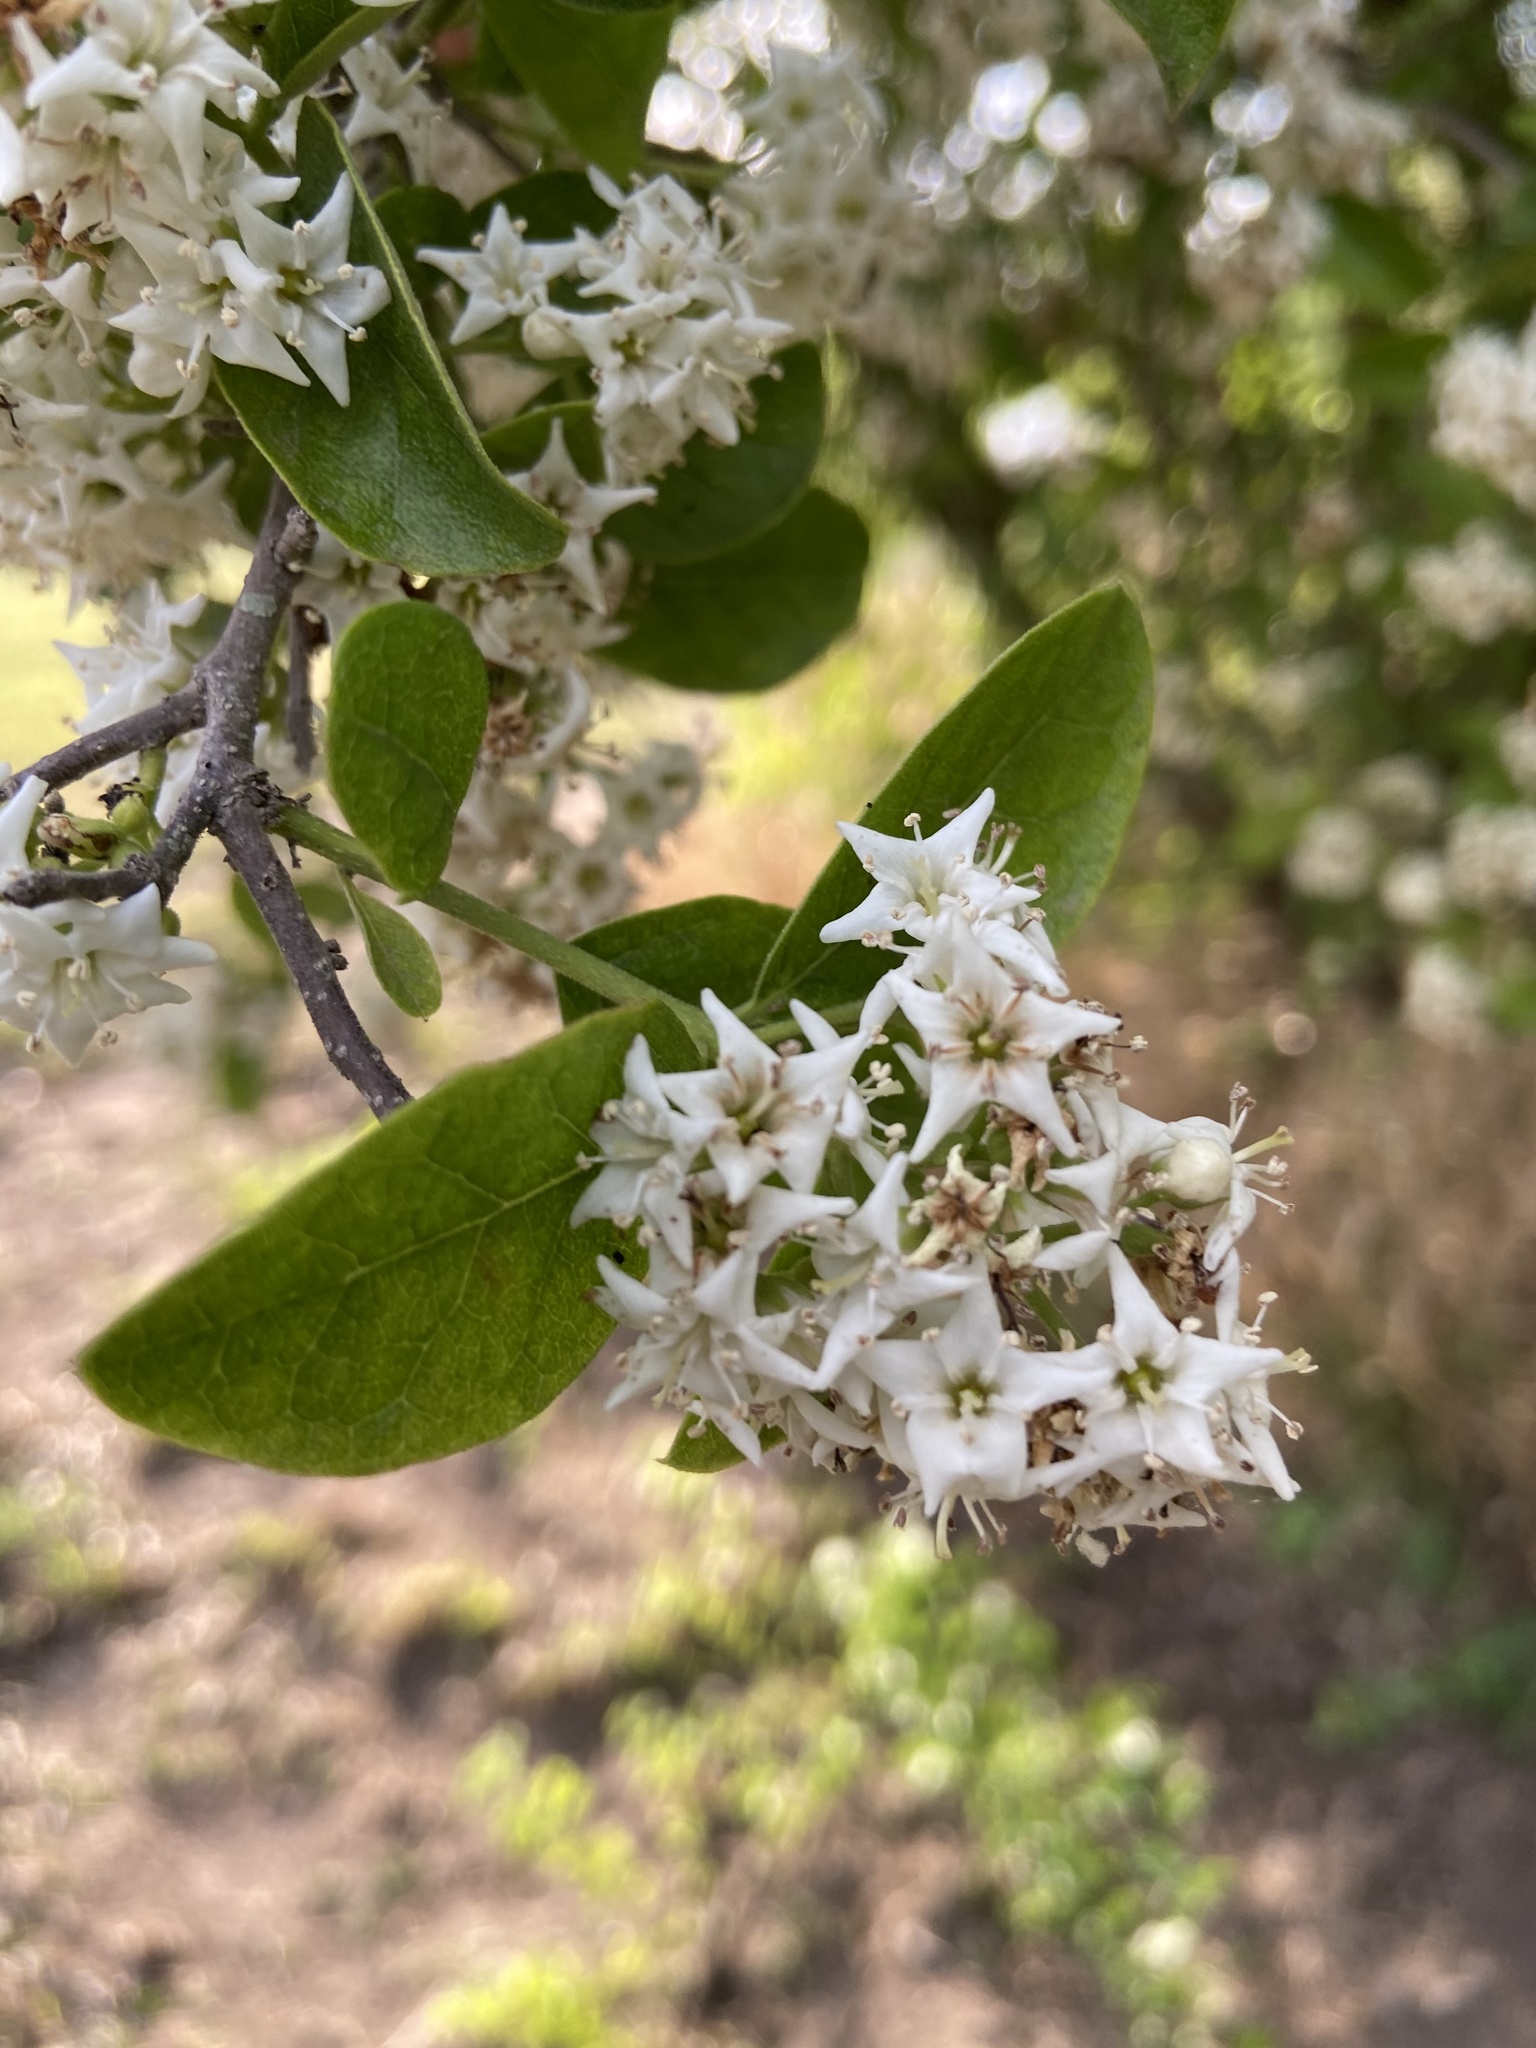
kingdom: Plantae
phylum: Tracheophyta
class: Magnoliopsida
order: Boraginales
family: Ehretiaceae
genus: Ehretia
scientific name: Ehretia anacua
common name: Sugarberry
